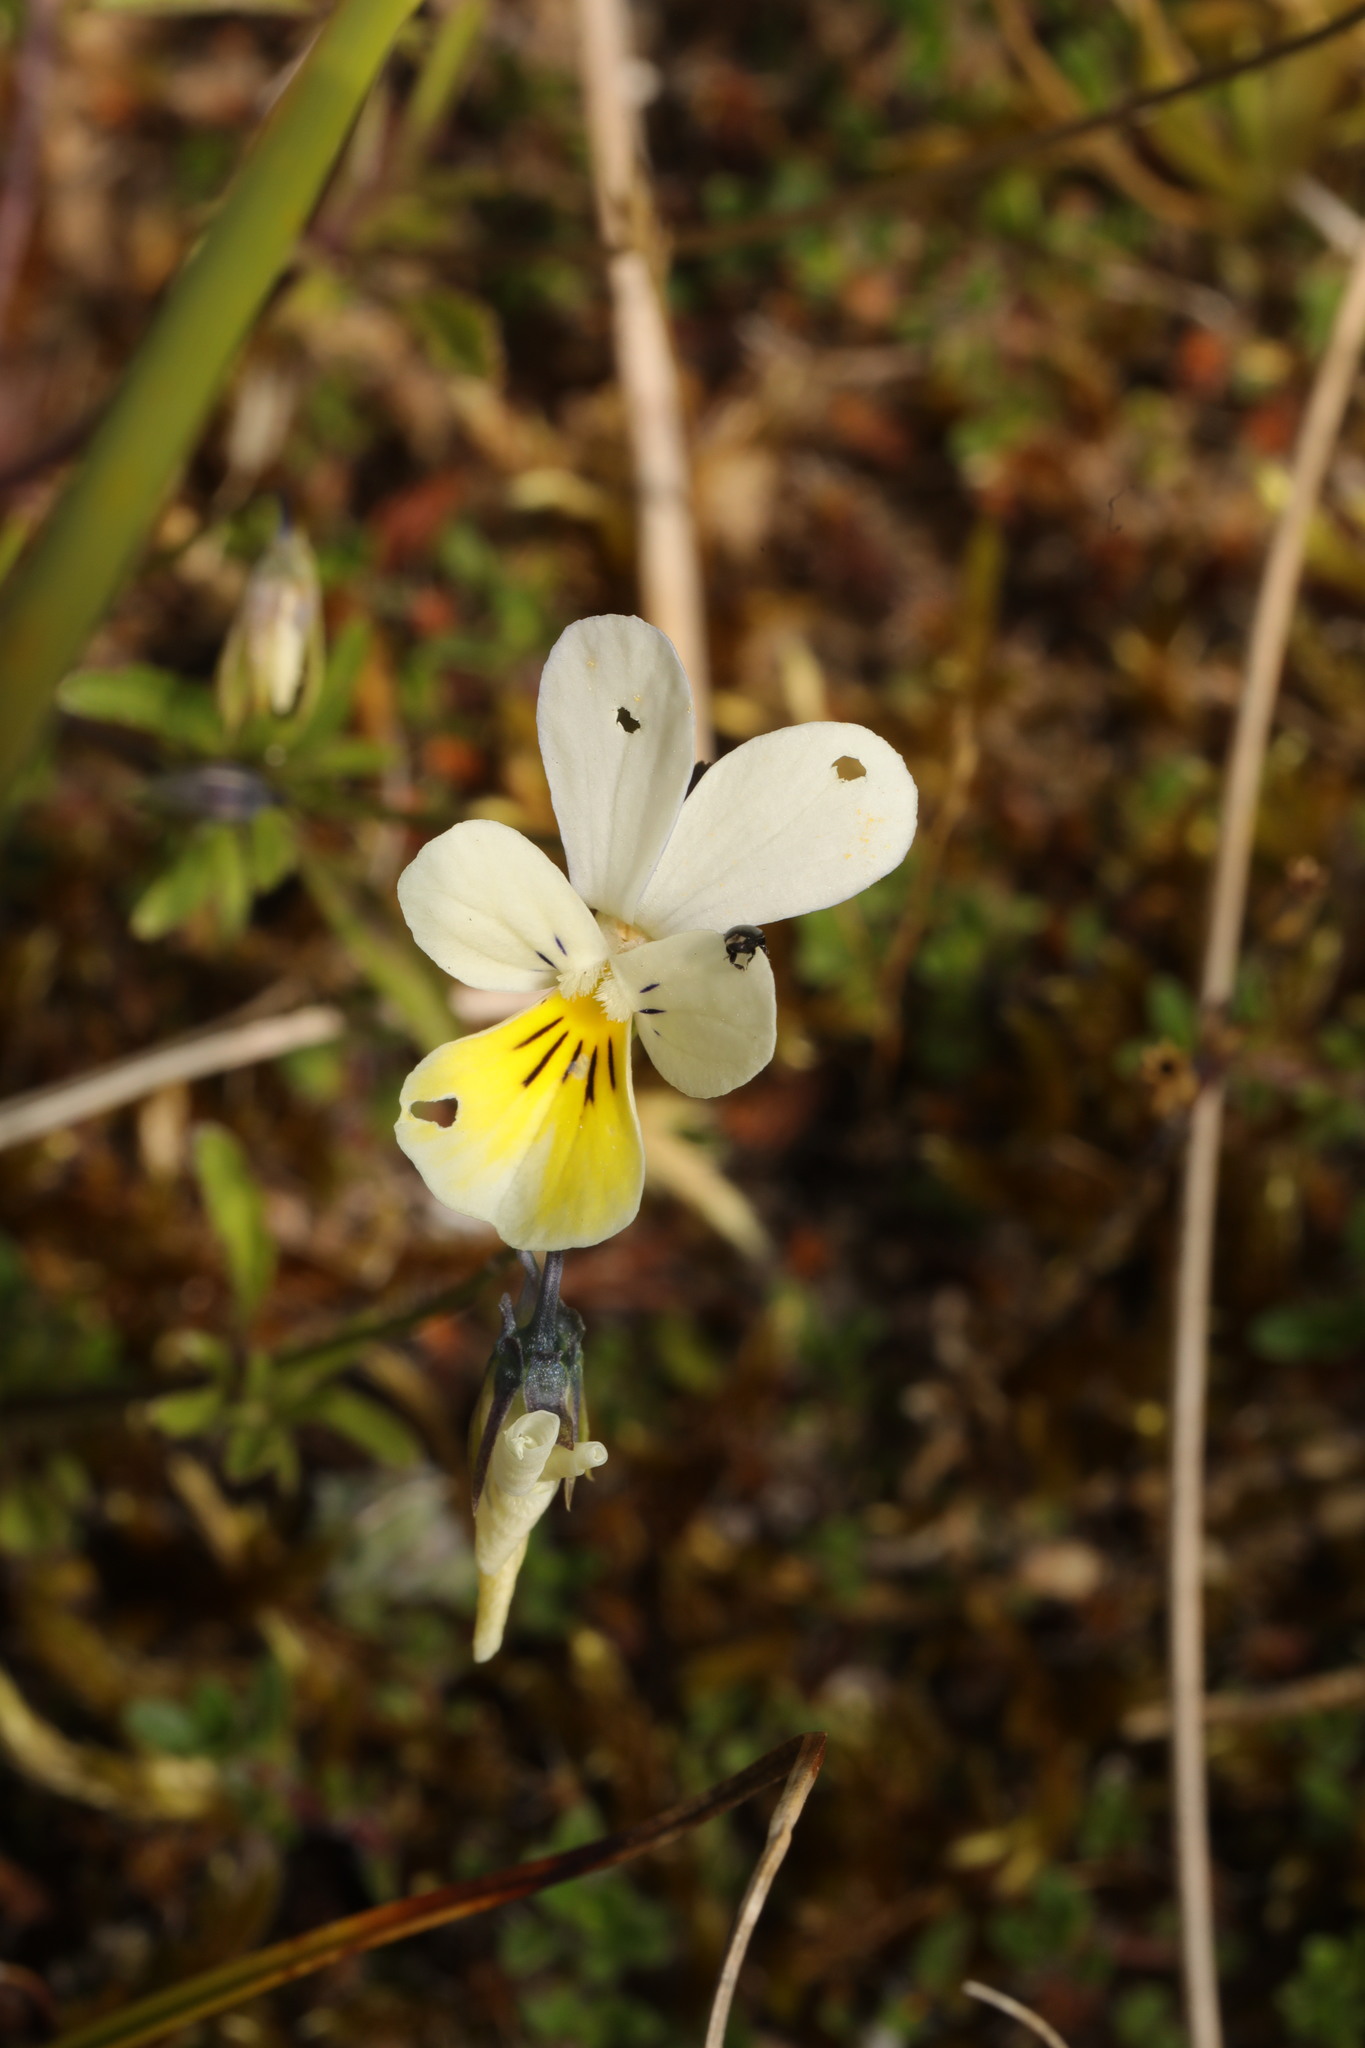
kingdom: Plantae
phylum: Tracheophyta
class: Magnoliopsida
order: Malpighiales
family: Violaceae
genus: Viola
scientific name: Viola tricolor
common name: Pansy
